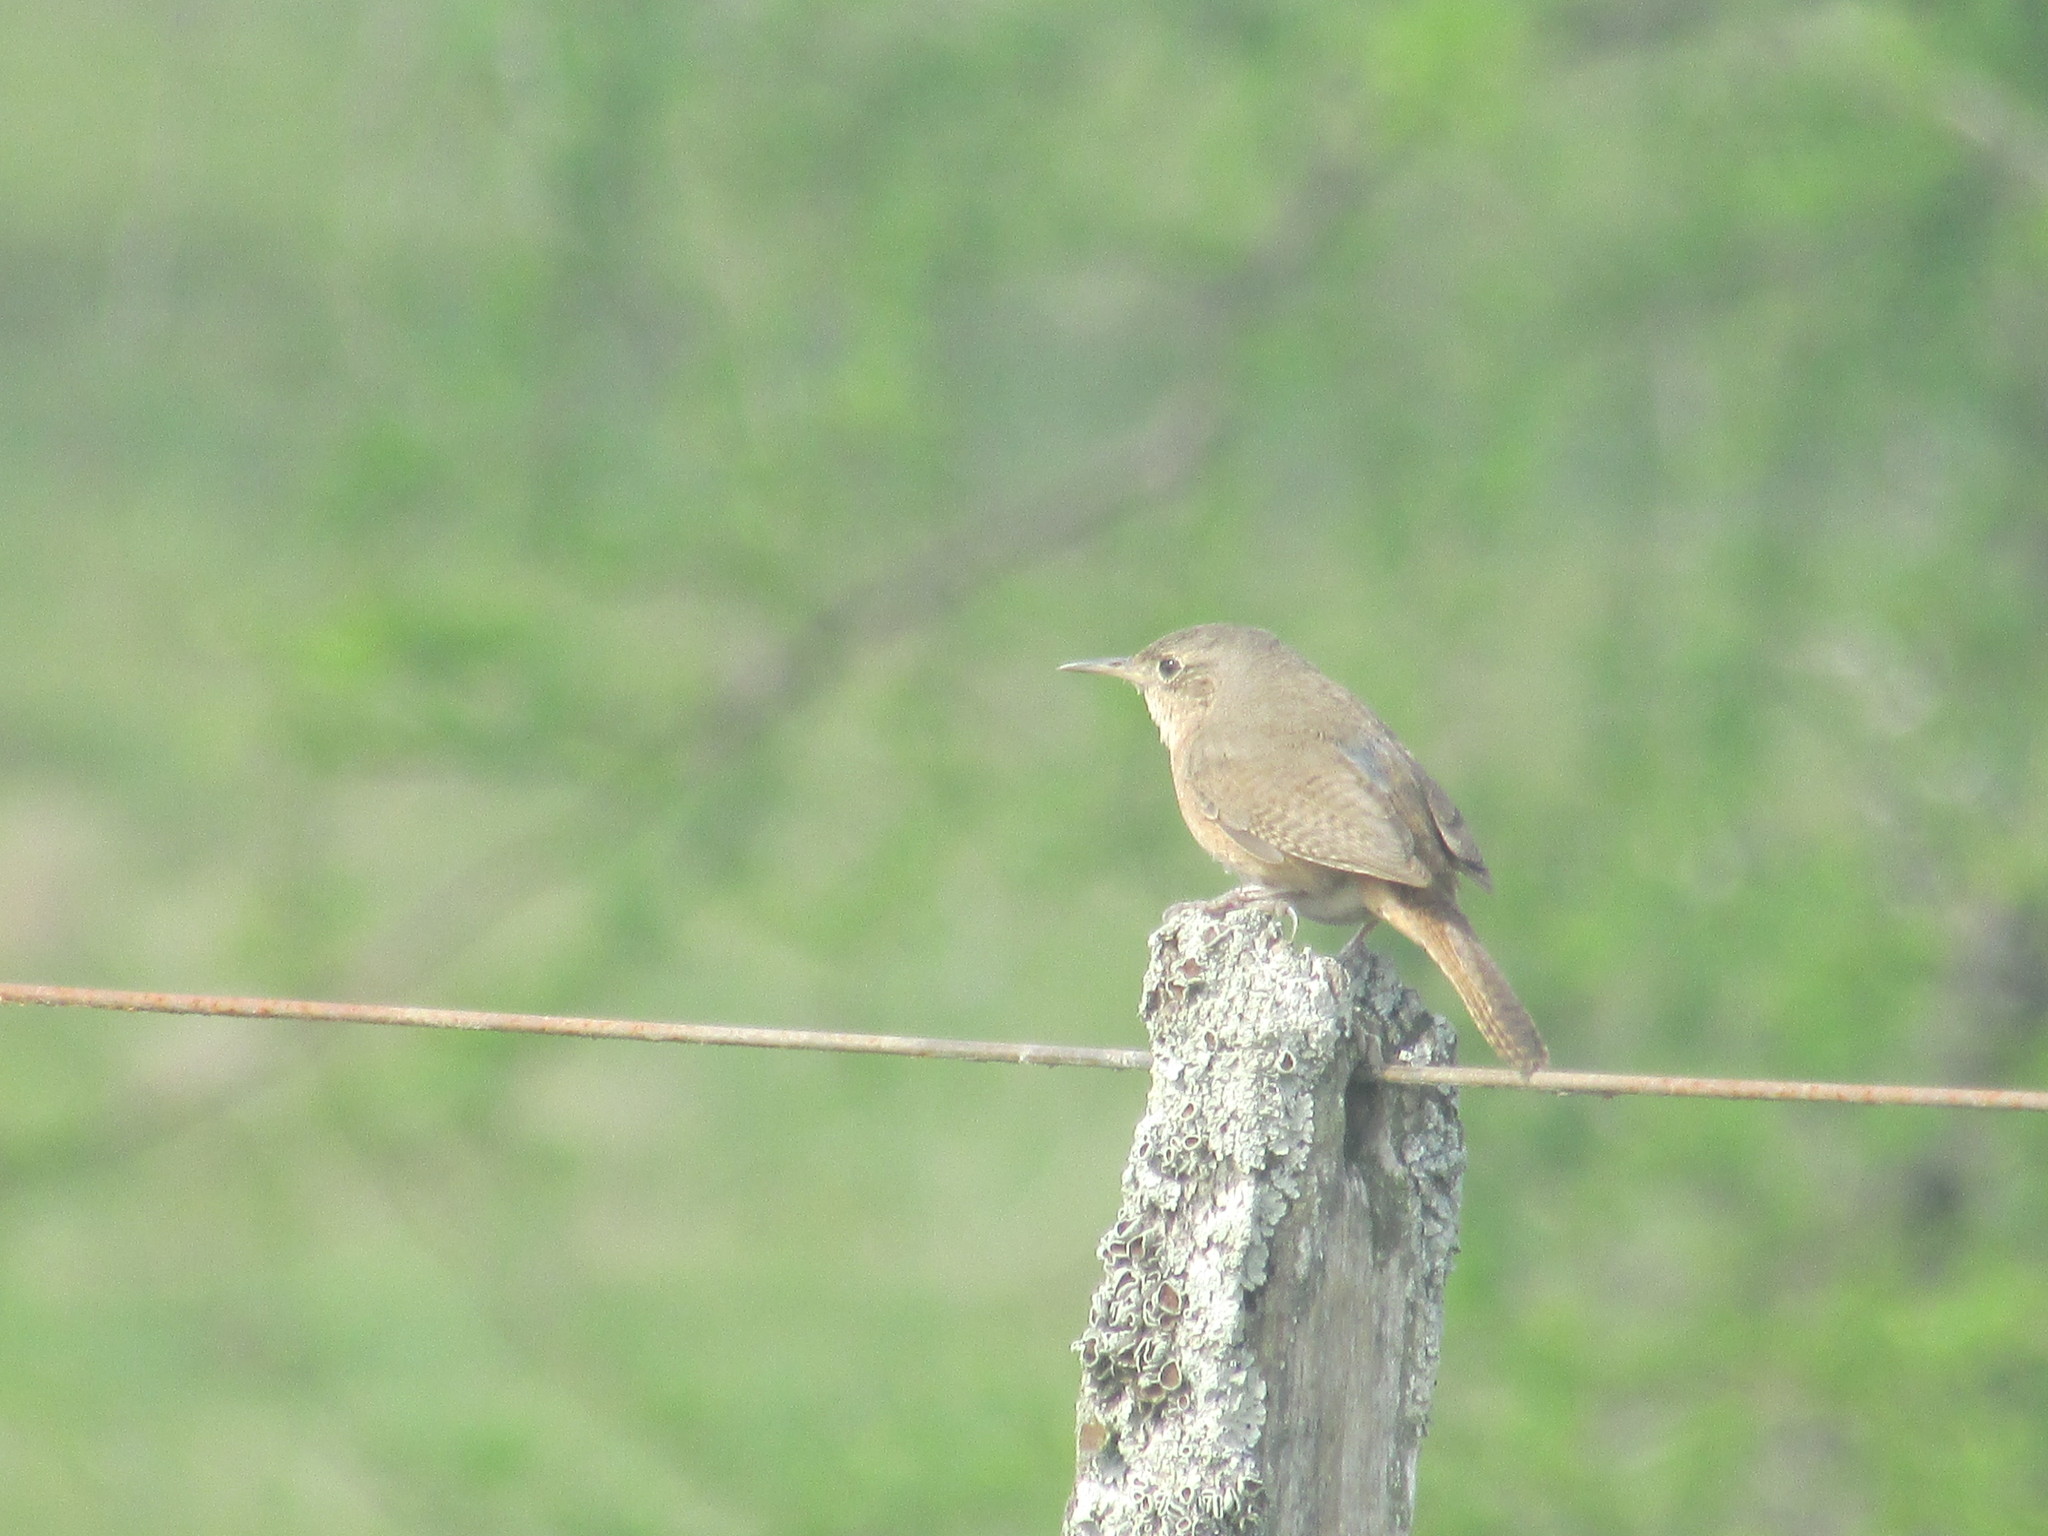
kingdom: Animalia
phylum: Chordata
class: Aves
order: Passeriformes
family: Troglodytidae
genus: Troglodytes
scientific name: Troglodytes aedon
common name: House wren
